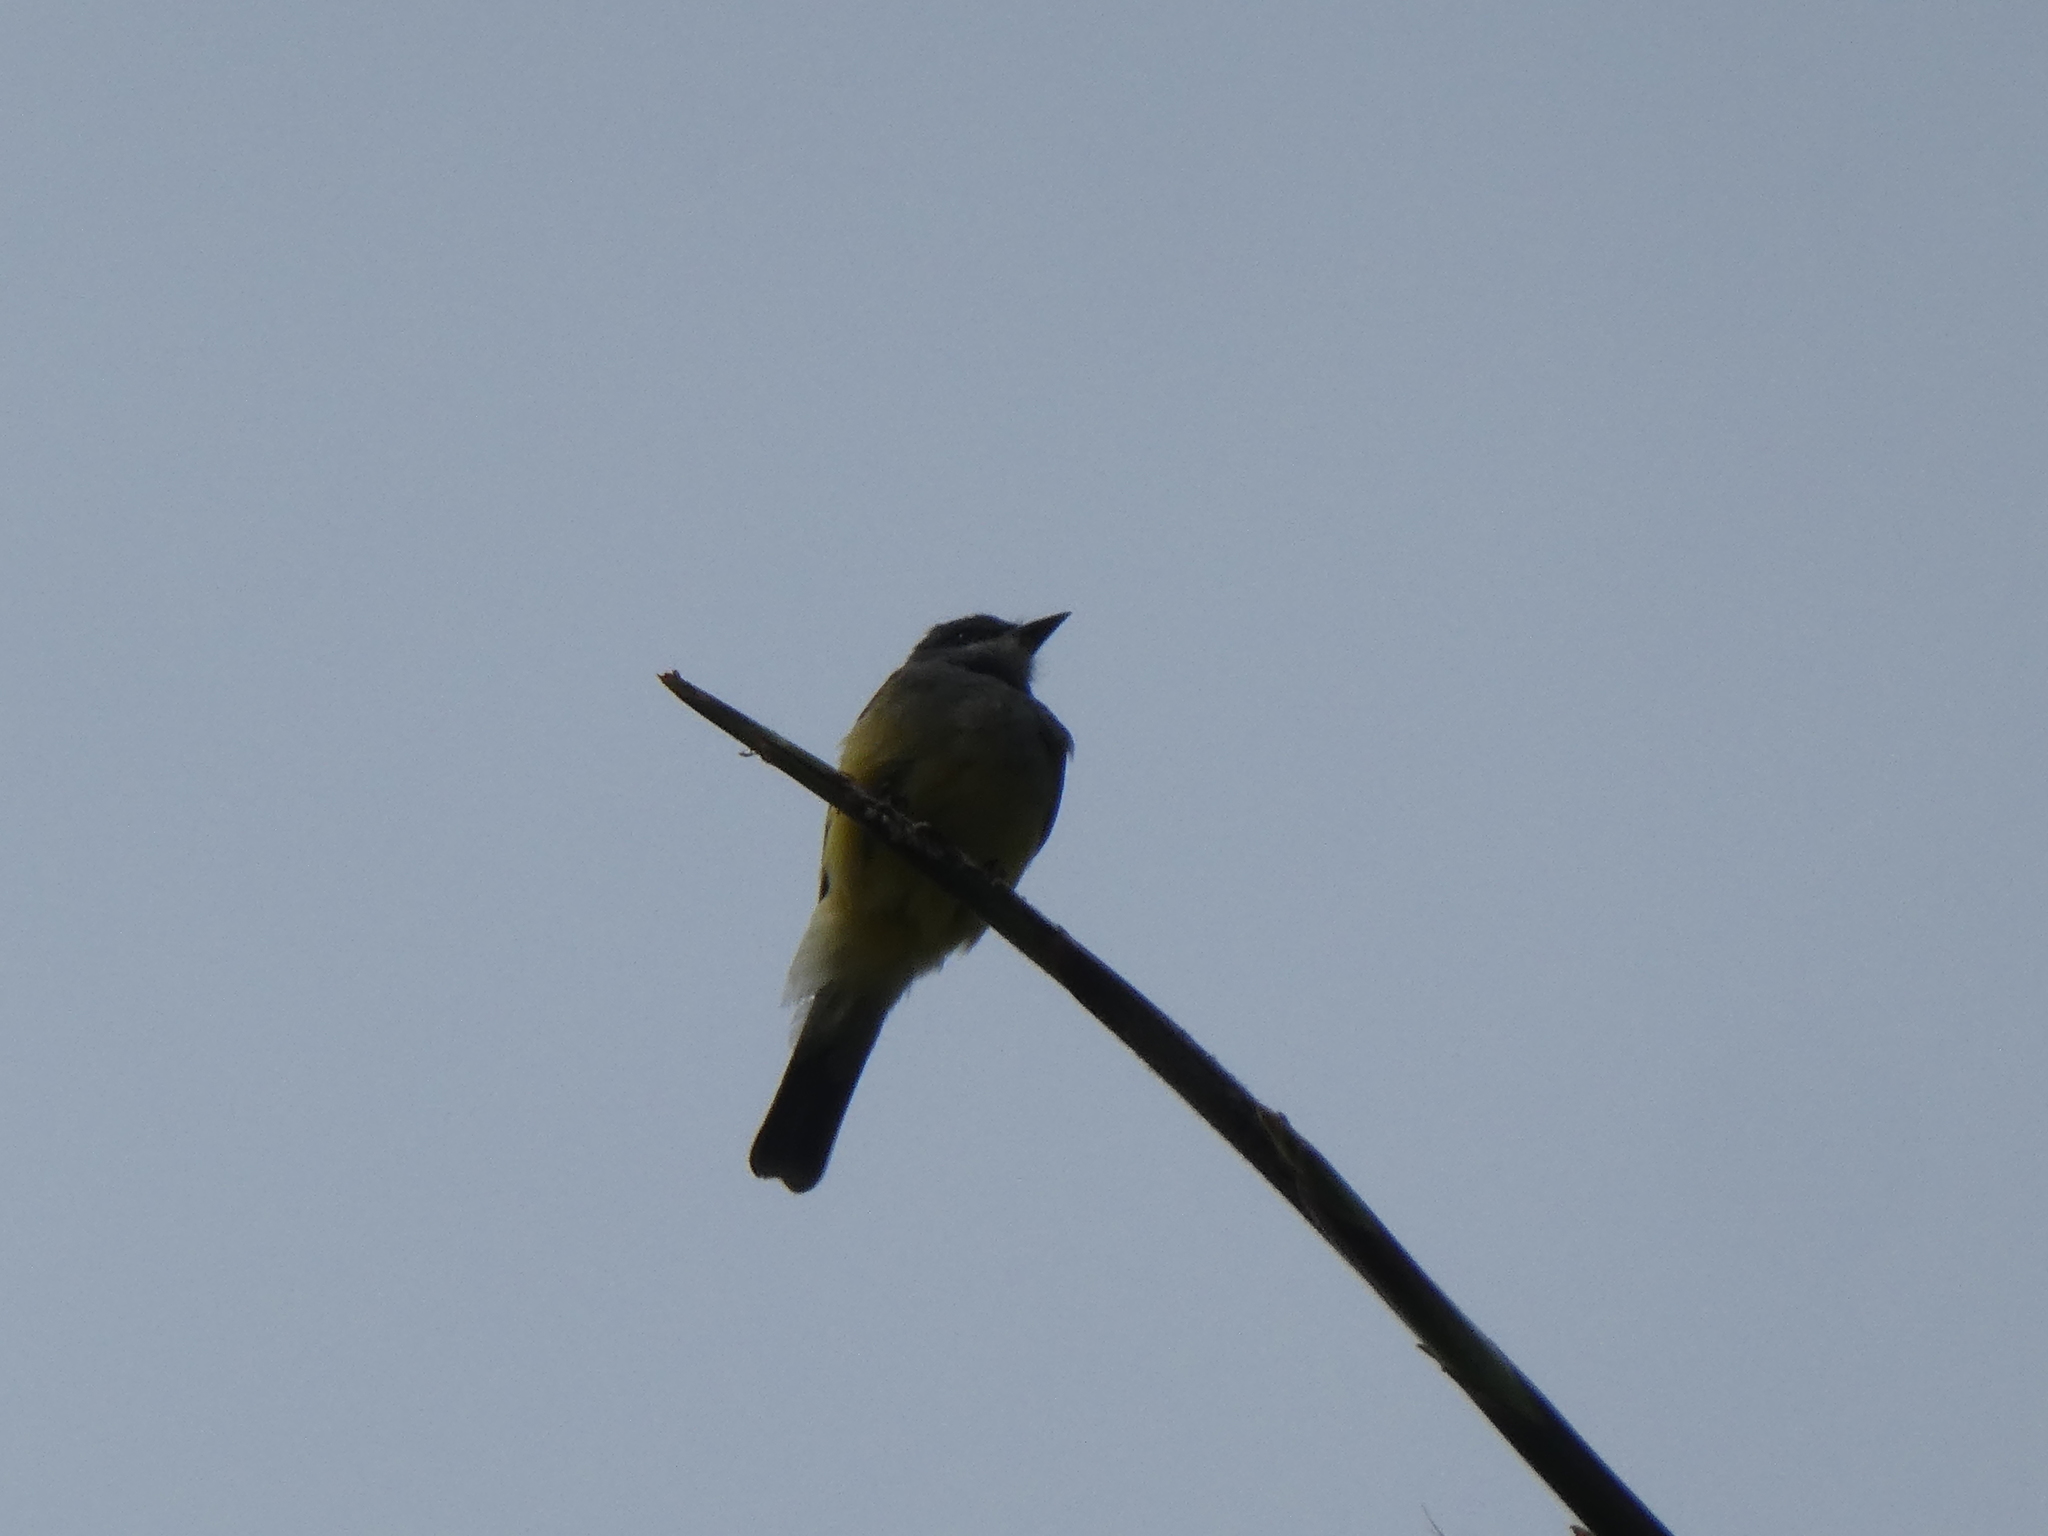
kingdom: Animalia
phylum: Chordata
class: Aves
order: Passeriformes
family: Tyrannidae
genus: Tyrannus
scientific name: Tyrannus vociferans
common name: Cassin's kingbird
